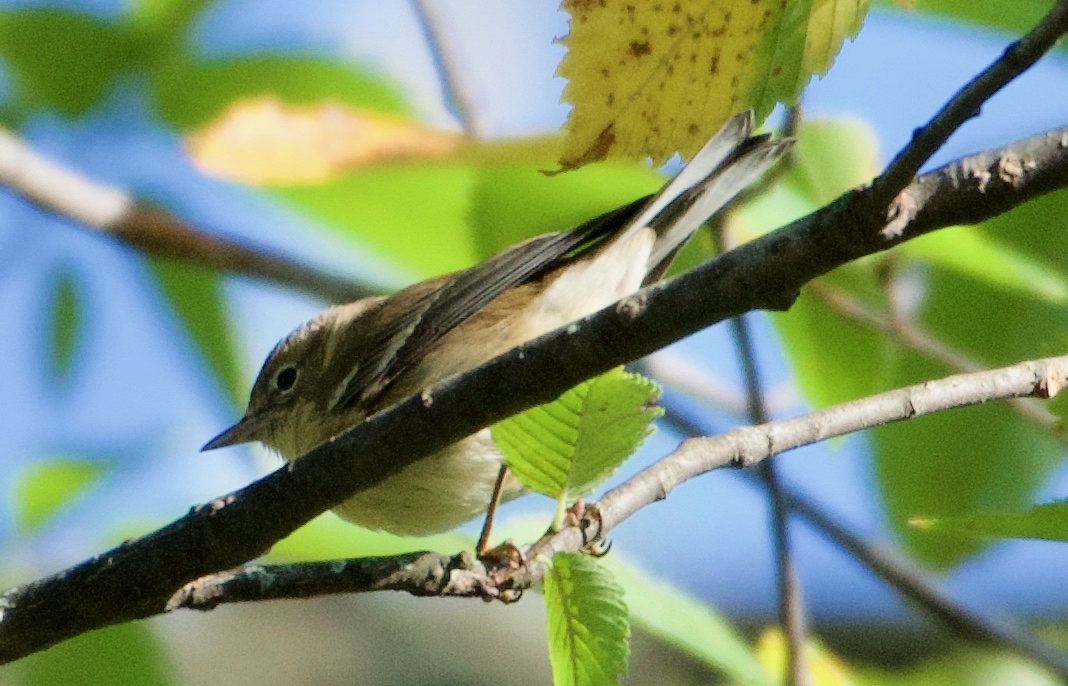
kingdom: Animalia
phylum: Chordata
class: Aves
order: Passeriformes
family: Parulidae
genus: Setophaga
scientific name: Setophaga pinus
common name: Pine warbler
